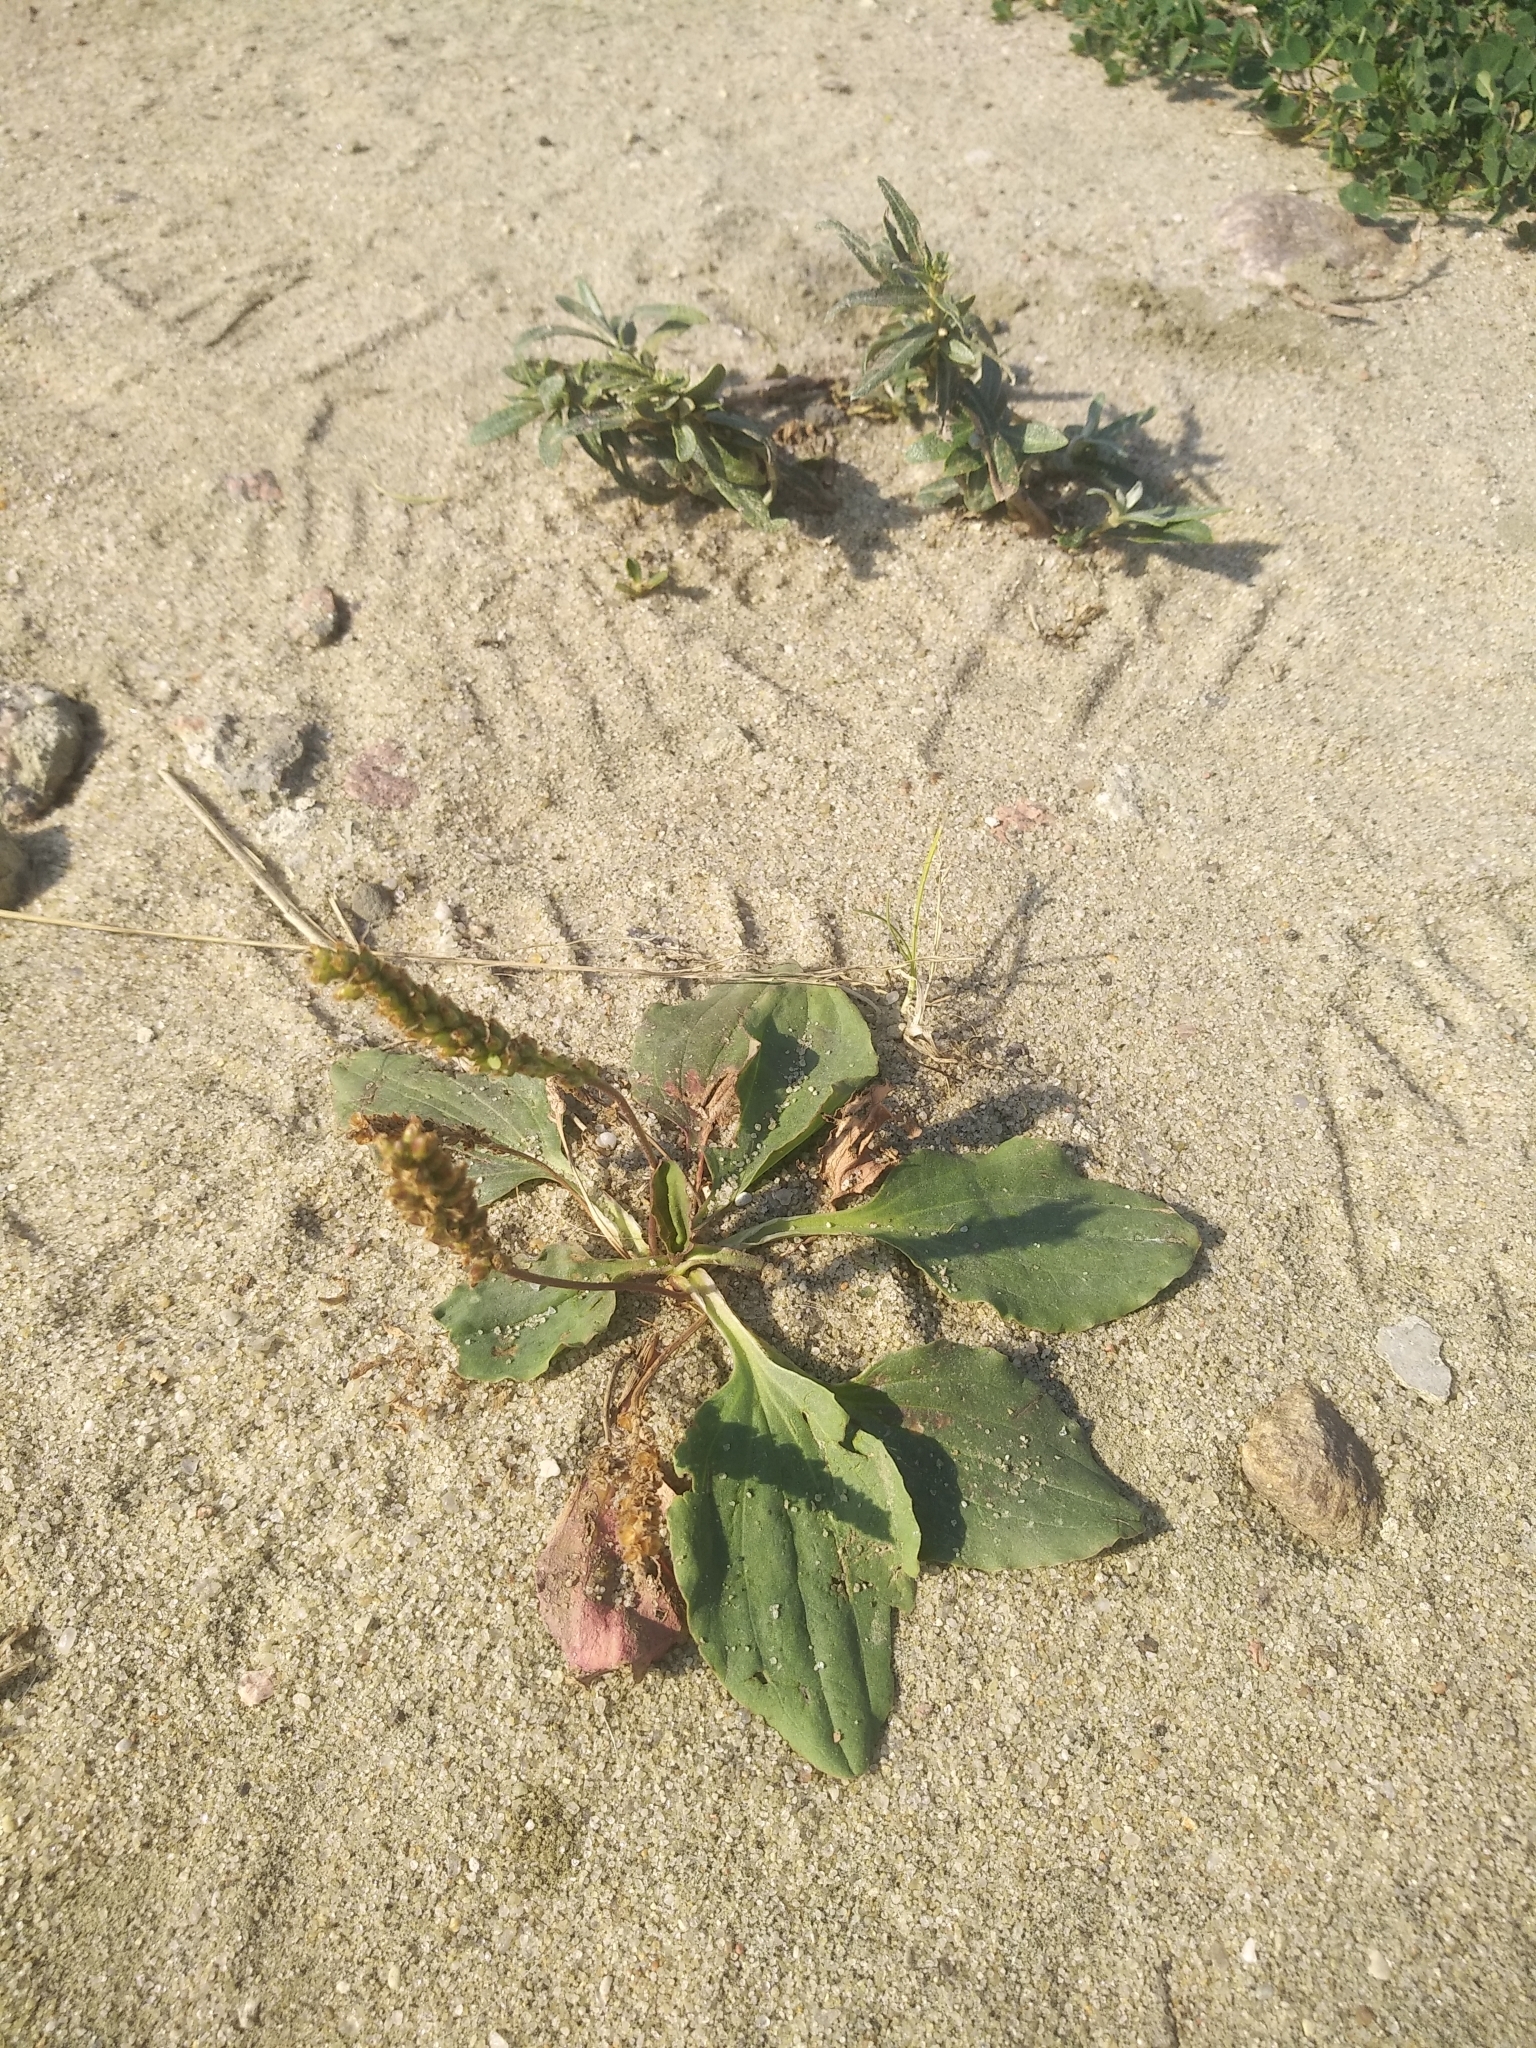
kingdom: Plantae
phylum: Tracheophyta
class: Magnoliopsida
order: Lamiales
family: Plantaginaceae
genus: Plantago
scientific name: Plantago major
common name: Common plantain
